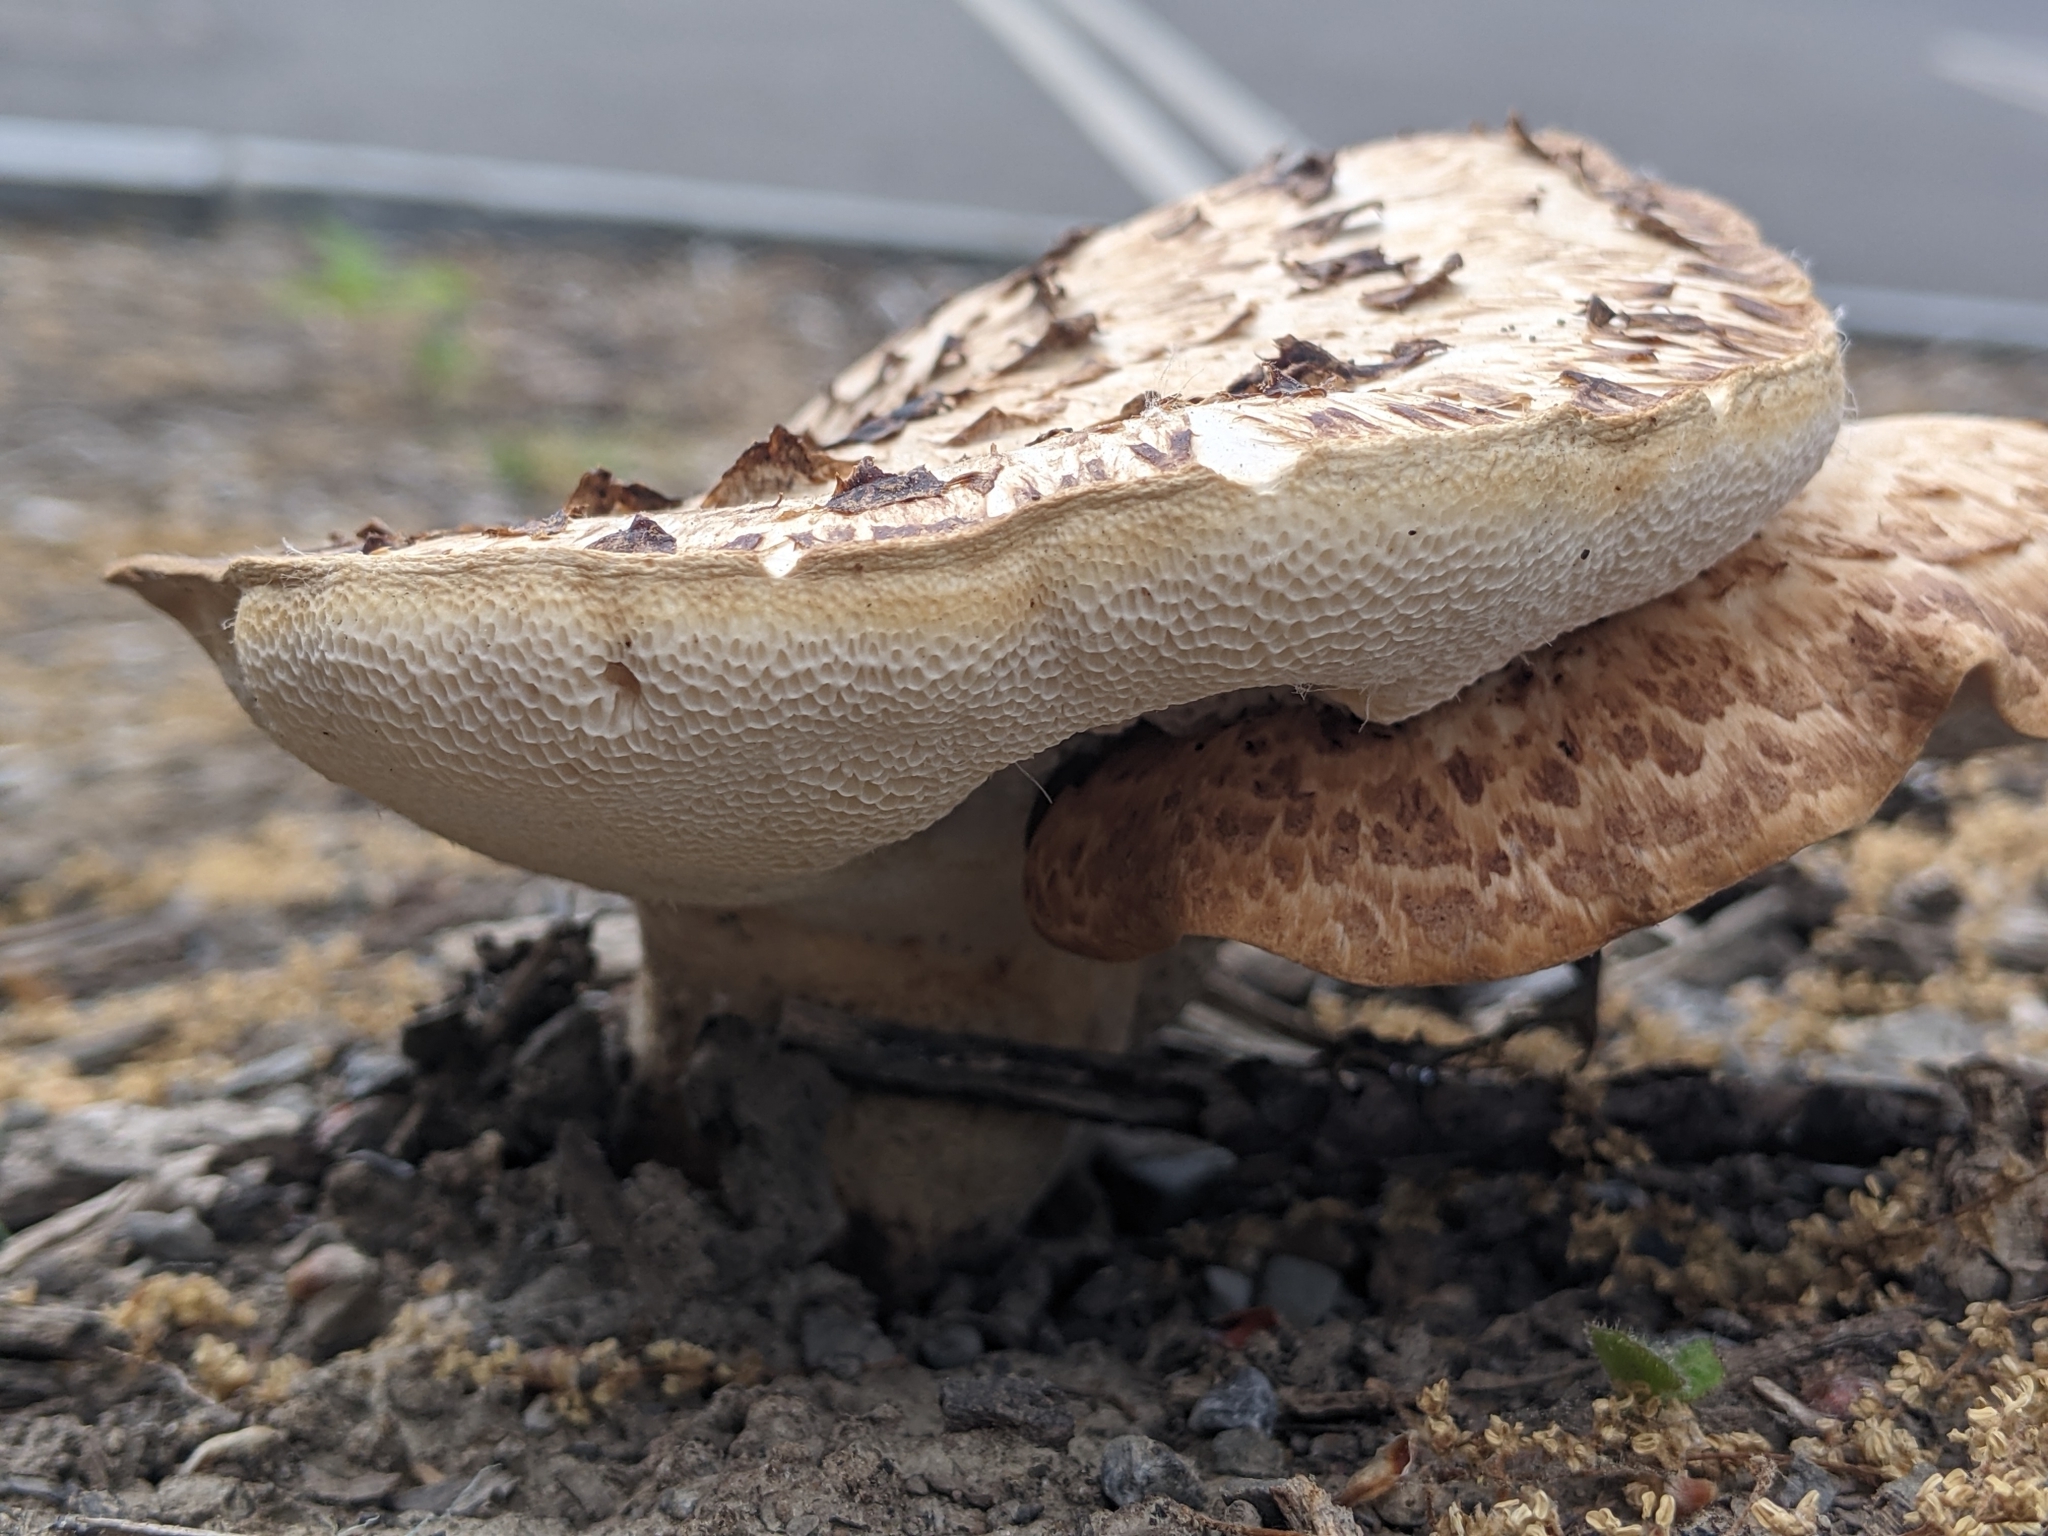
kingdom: Fungi
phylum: Basidiomycota
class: Agaricomycetes
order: Polyporales
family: Polyporaceae
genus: Cerioporus
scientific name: Cerioporus squamosus
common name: Dryad's saddle
